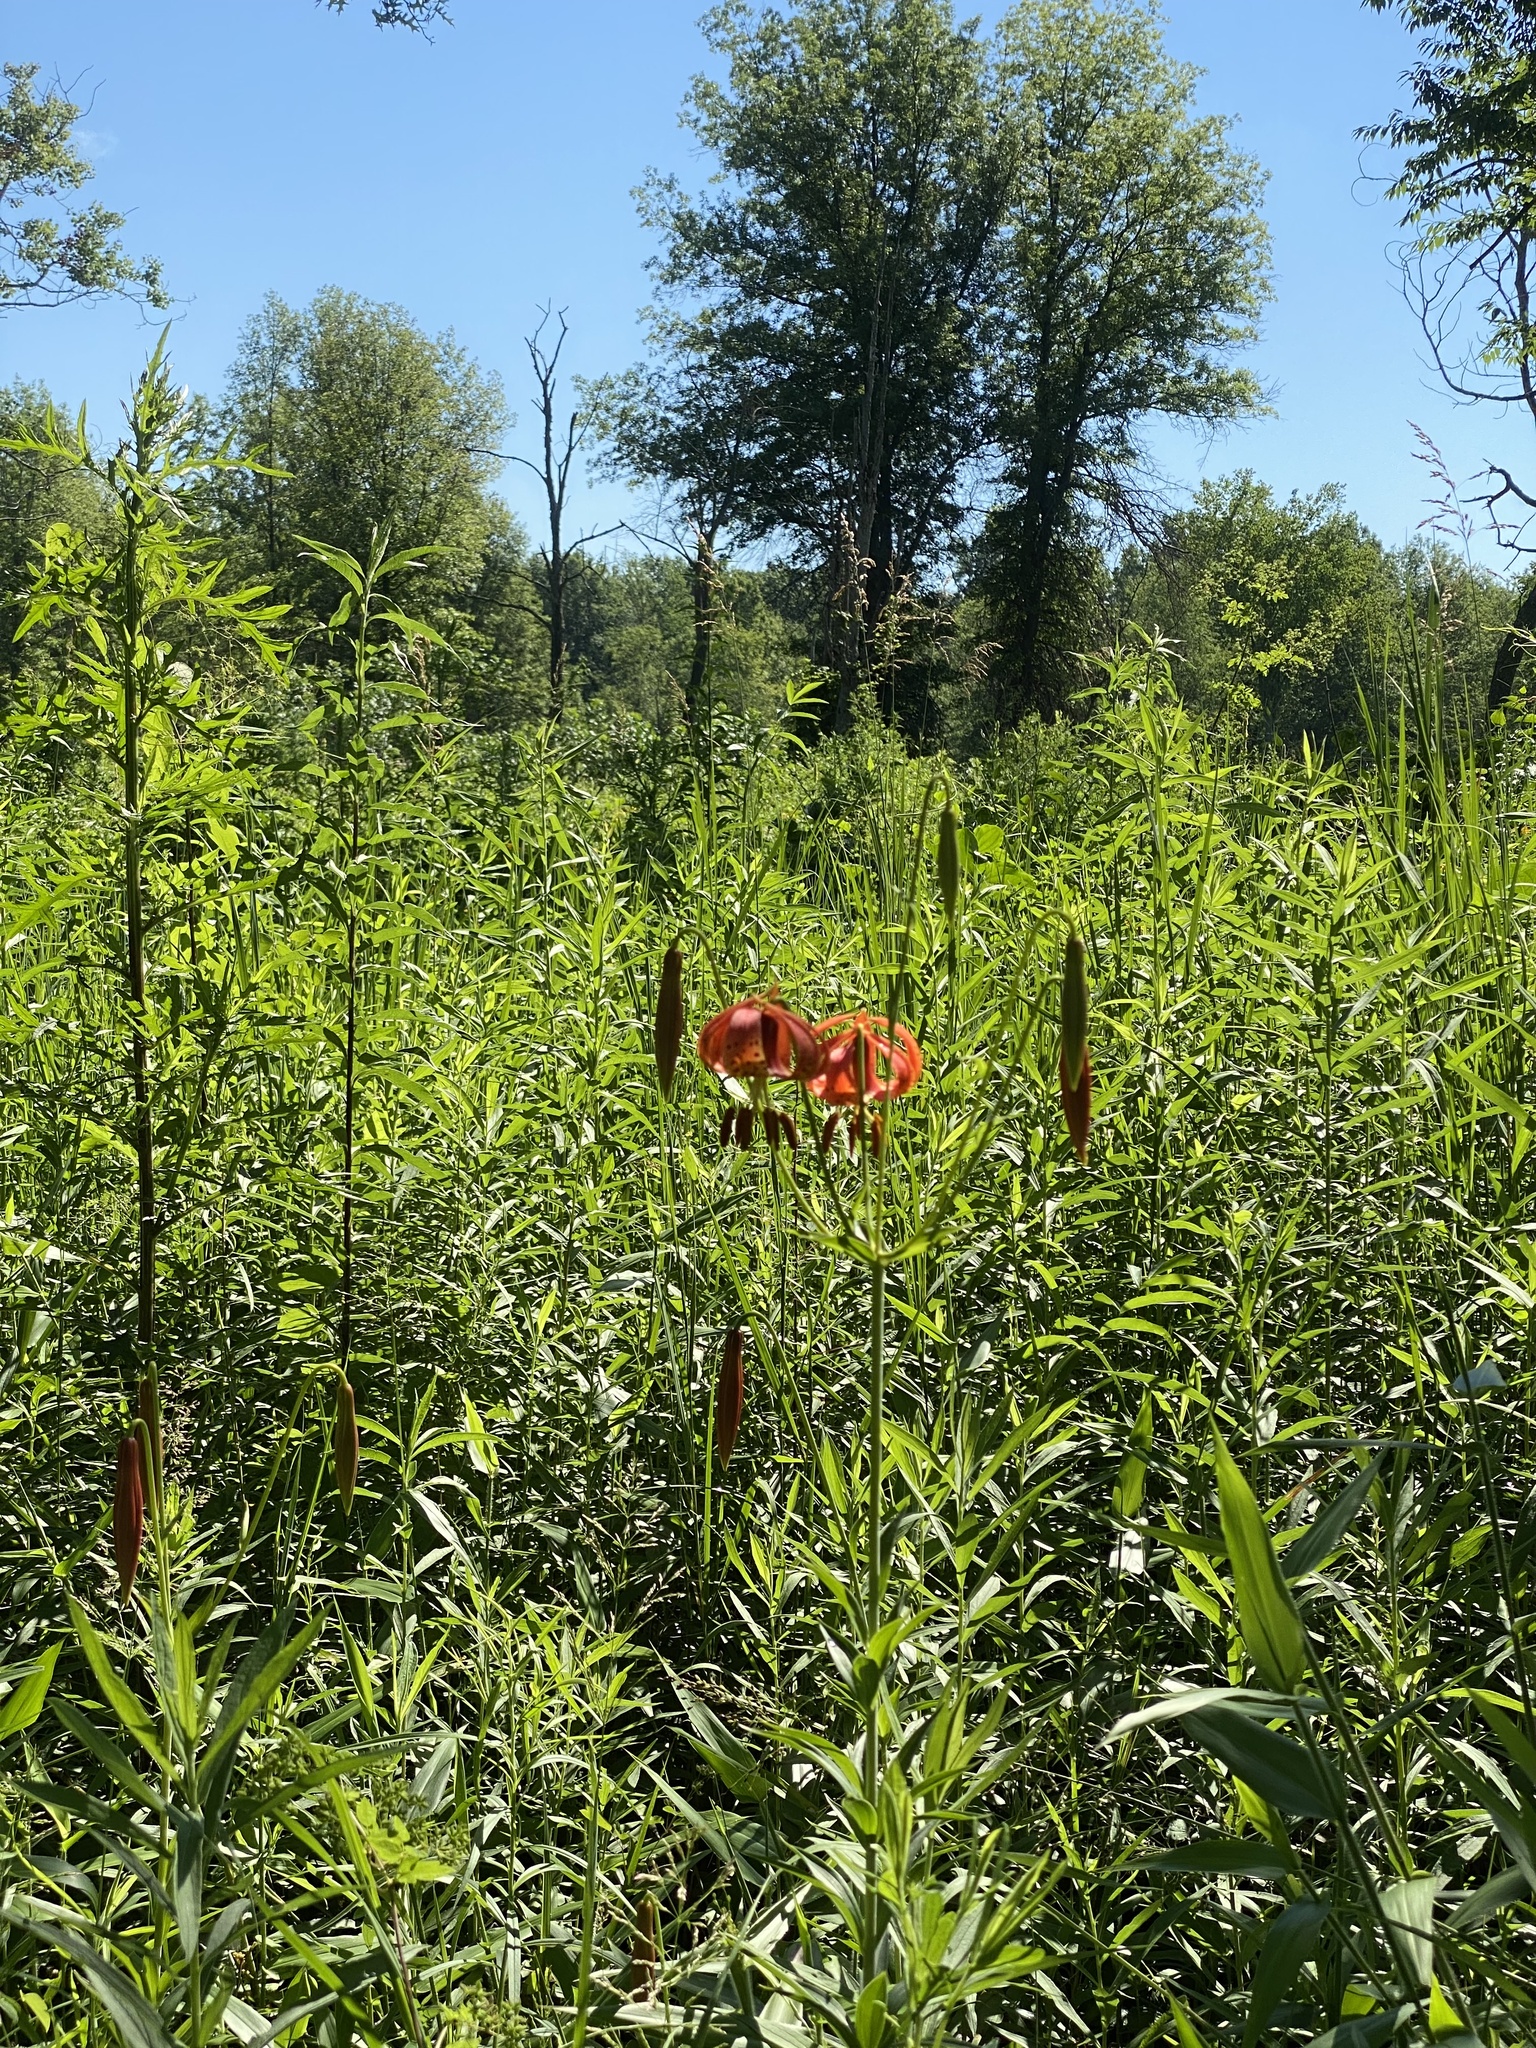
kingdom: Plantae
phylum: Tracheophyta
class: Liliopsida
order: Liliales
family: Liliaceae
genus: Lilium
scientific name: Lilium michiganense
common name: Michigan lily
